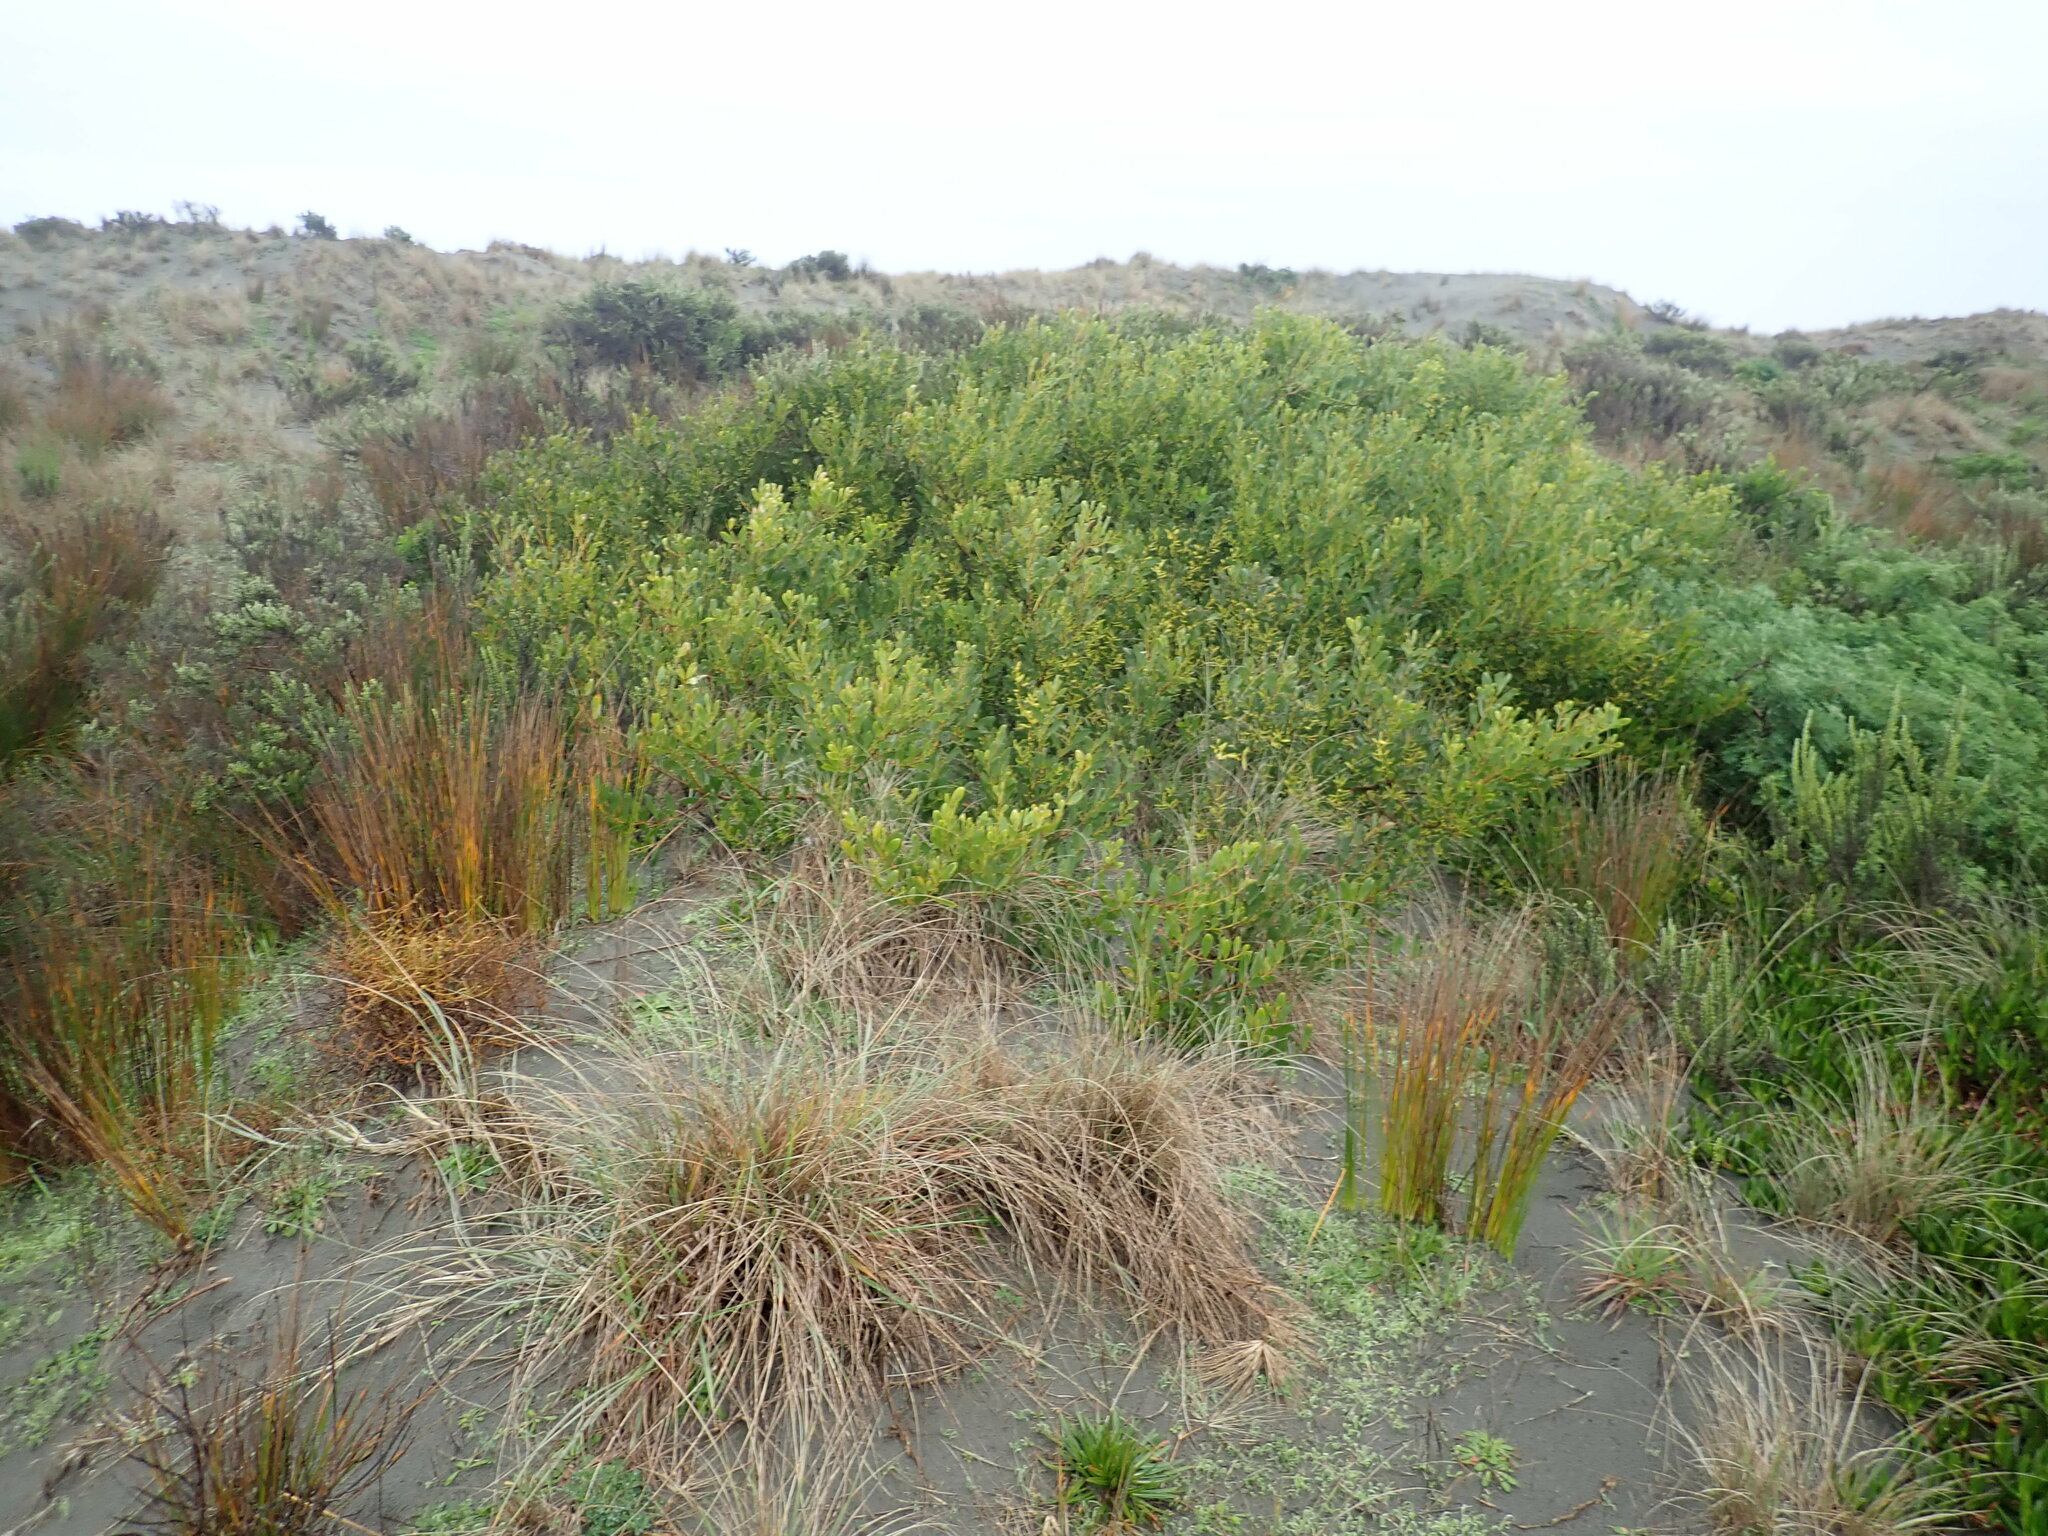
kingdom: Plantae
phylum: Tracheophyta
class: Magnoliopsida
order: Fabales
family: Fabaceae
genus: Acacia
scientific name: Acacia longifolia
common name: Sydney golden wattle
